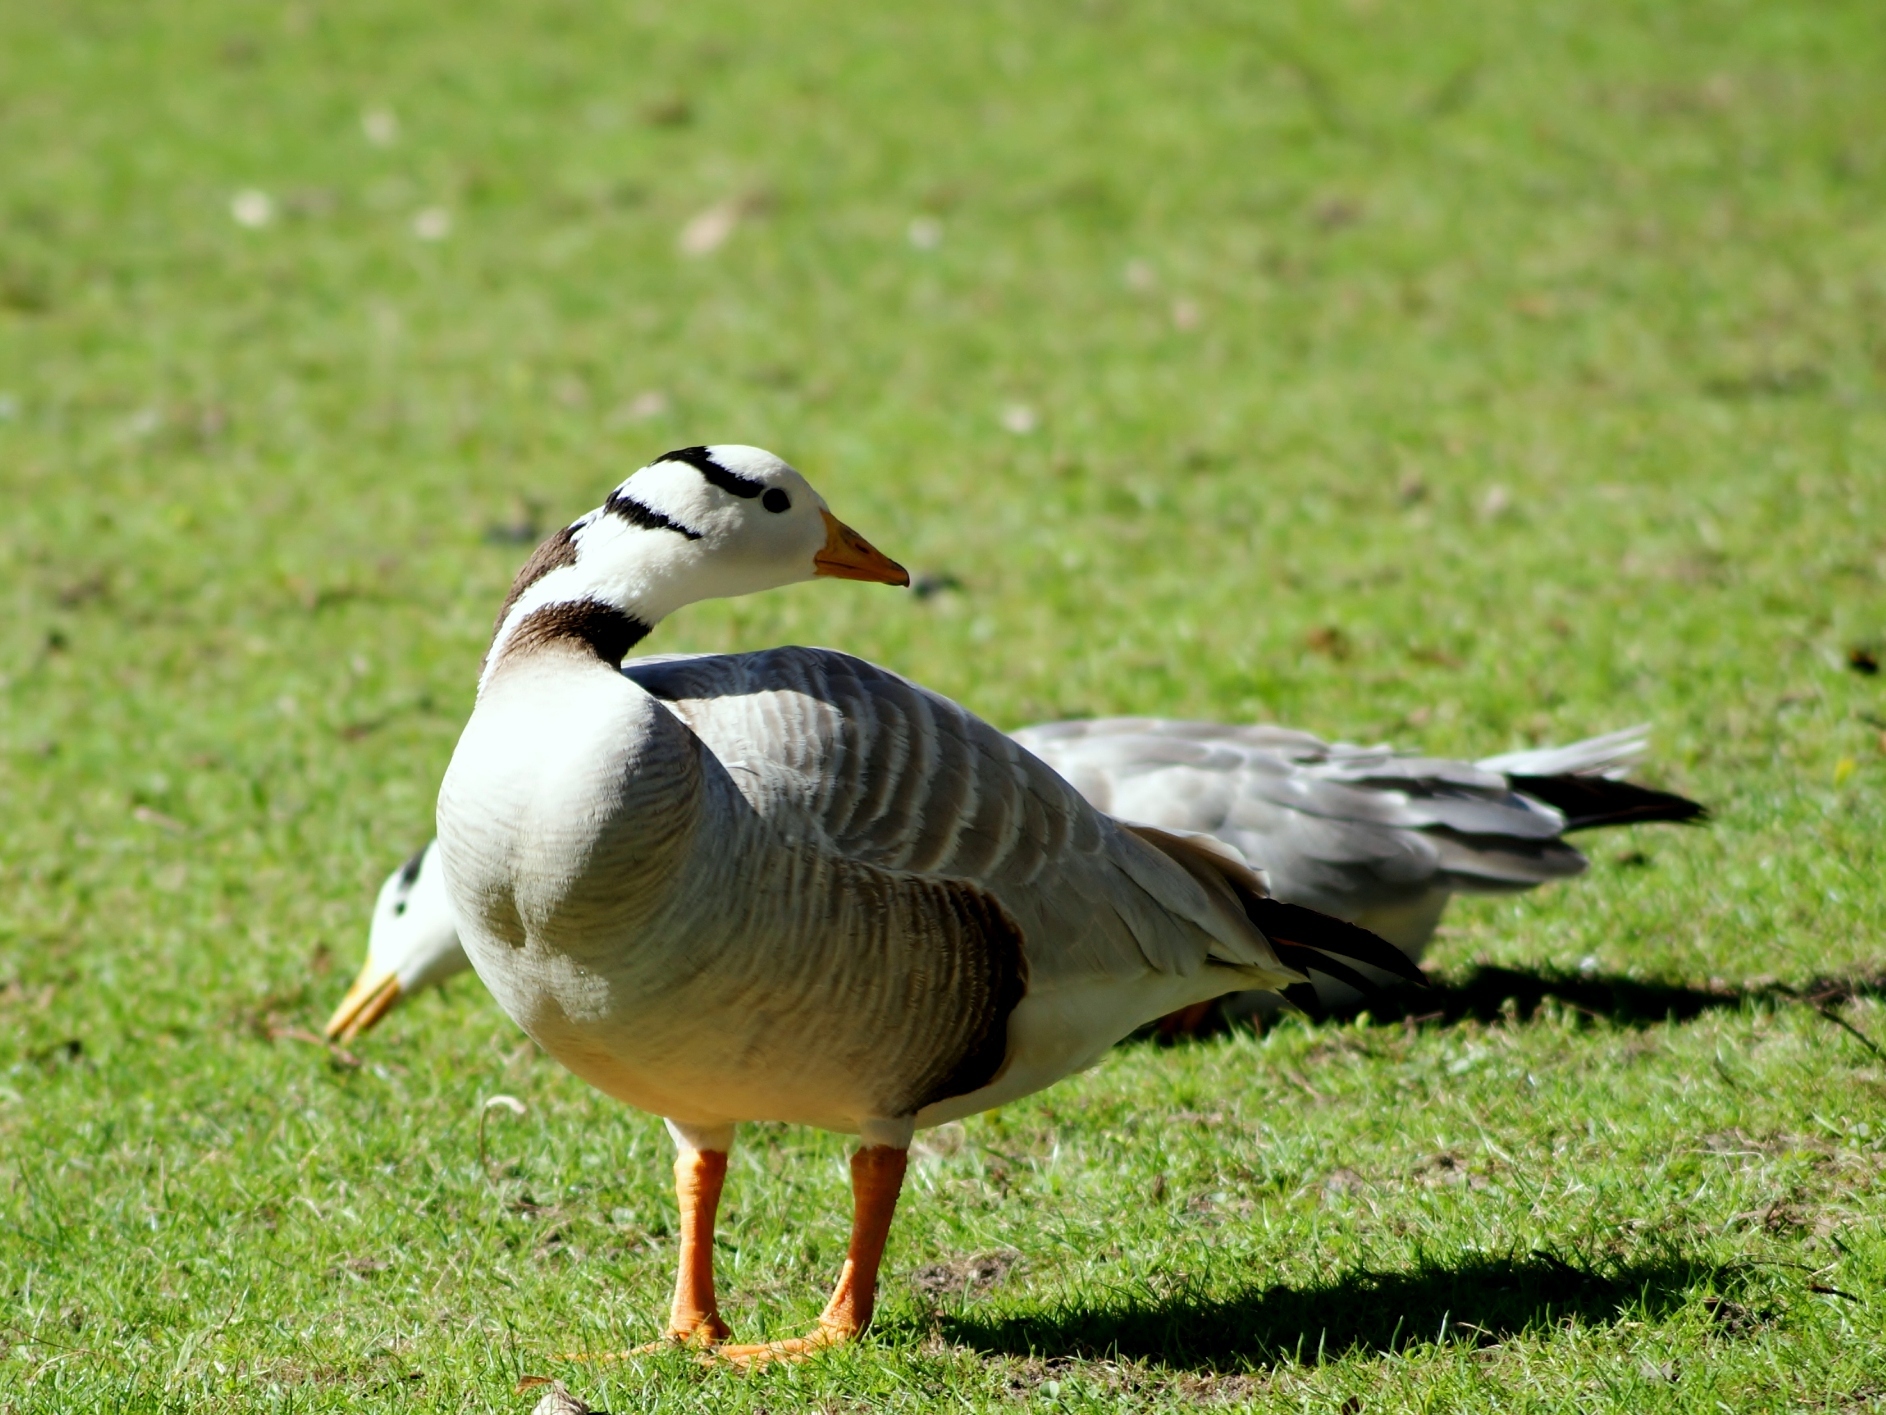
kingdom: Animalia
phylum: Chordata
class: Aves
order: Anseriformes
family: Anatidae
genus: Anser
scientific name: Anser indicus
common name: Bar-headed goose
